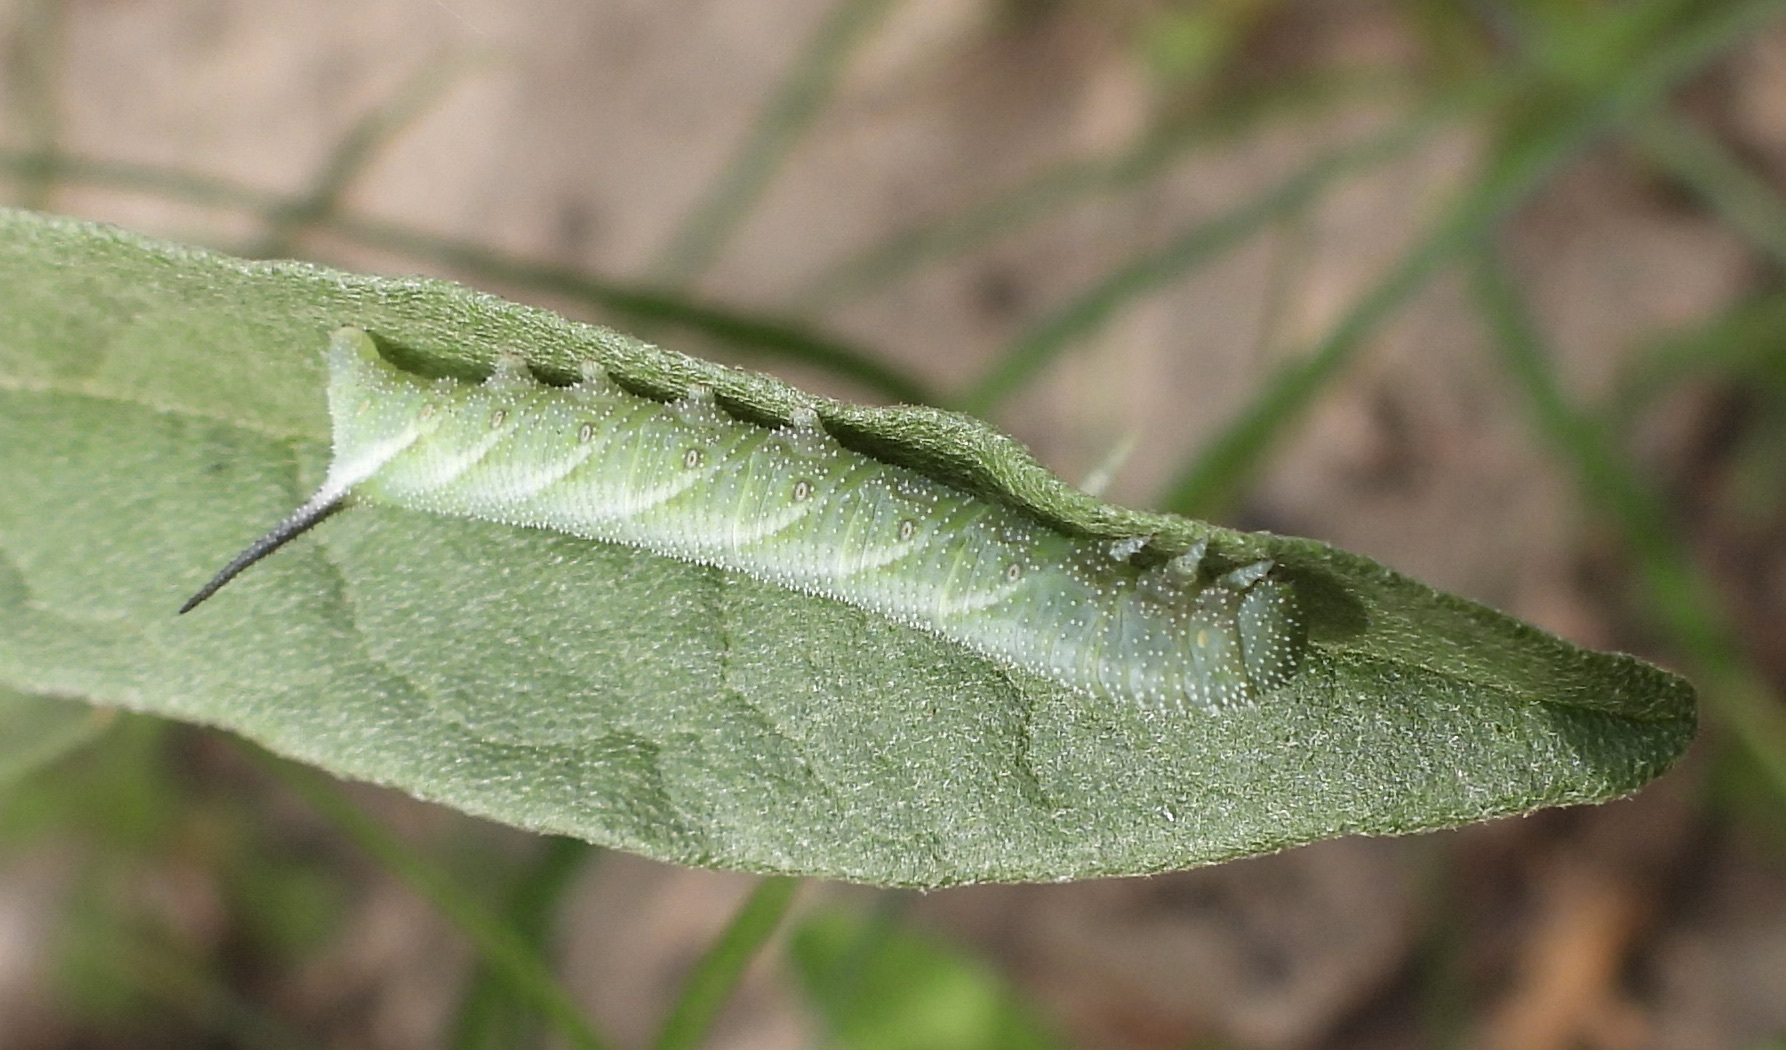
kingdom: Animalia
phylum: Arthropoda
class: Insecta
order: Lepidoptera
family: Sphingidae
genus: Manduca
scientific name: Manduca quinquemaculatus
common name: Five-spotted hawk-moth
